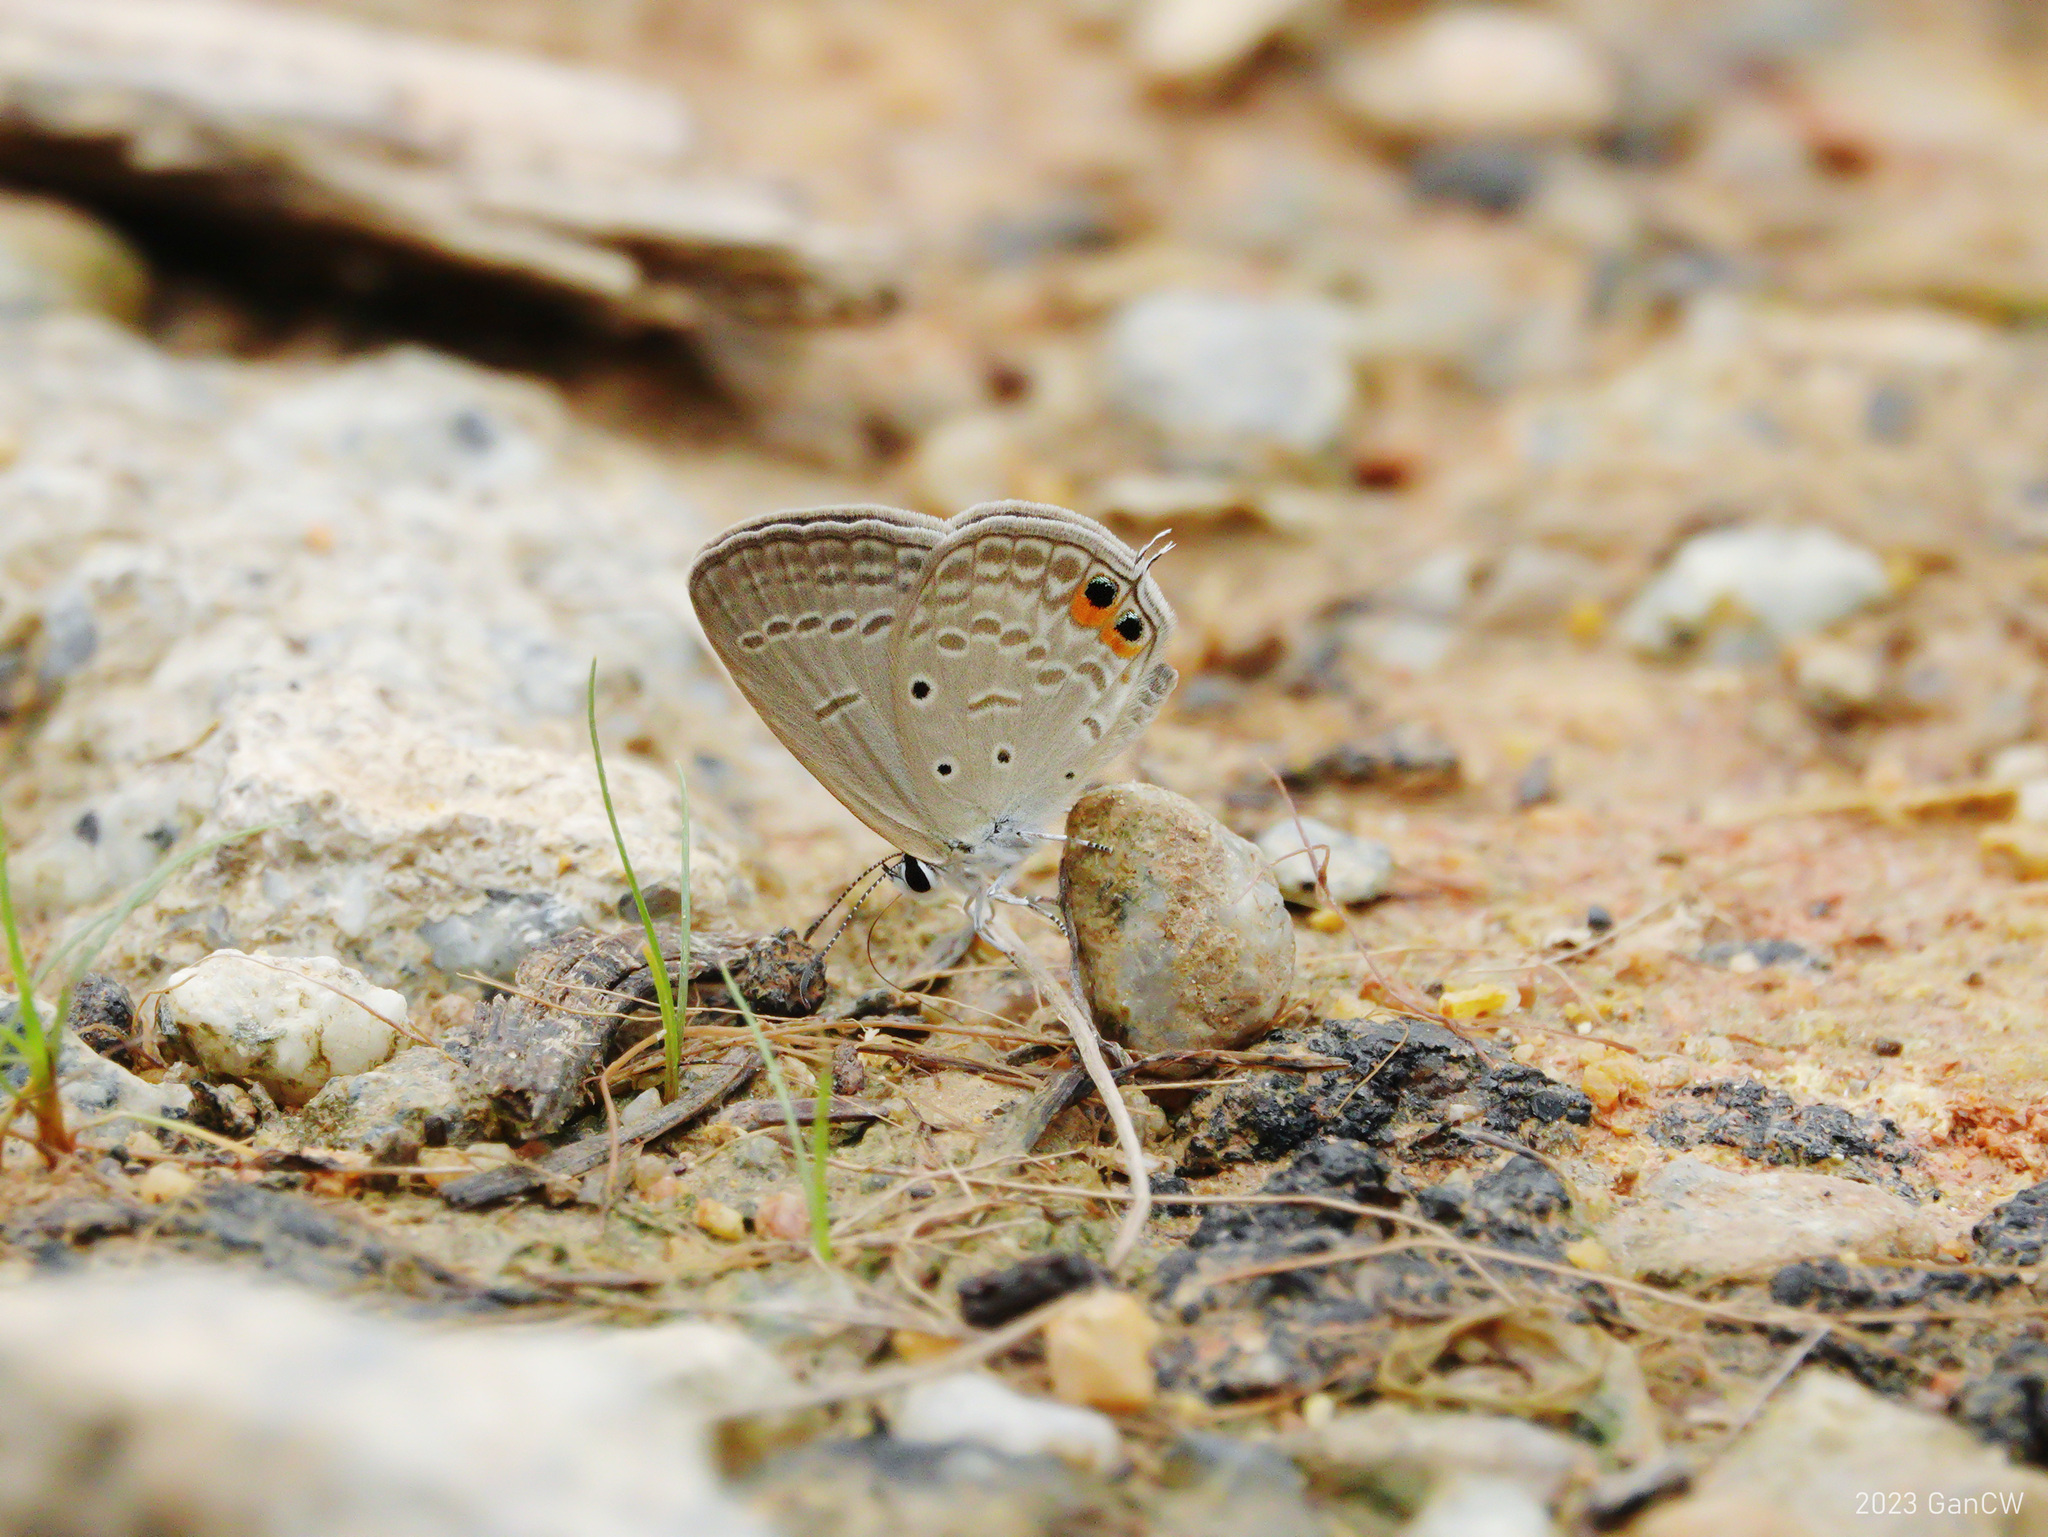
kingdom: Animalia
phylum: Arthropoda
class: Insecta
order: Lepidoptera
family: Lycaenidae
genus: Euchrysops
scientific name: Euchrysops cnejus
